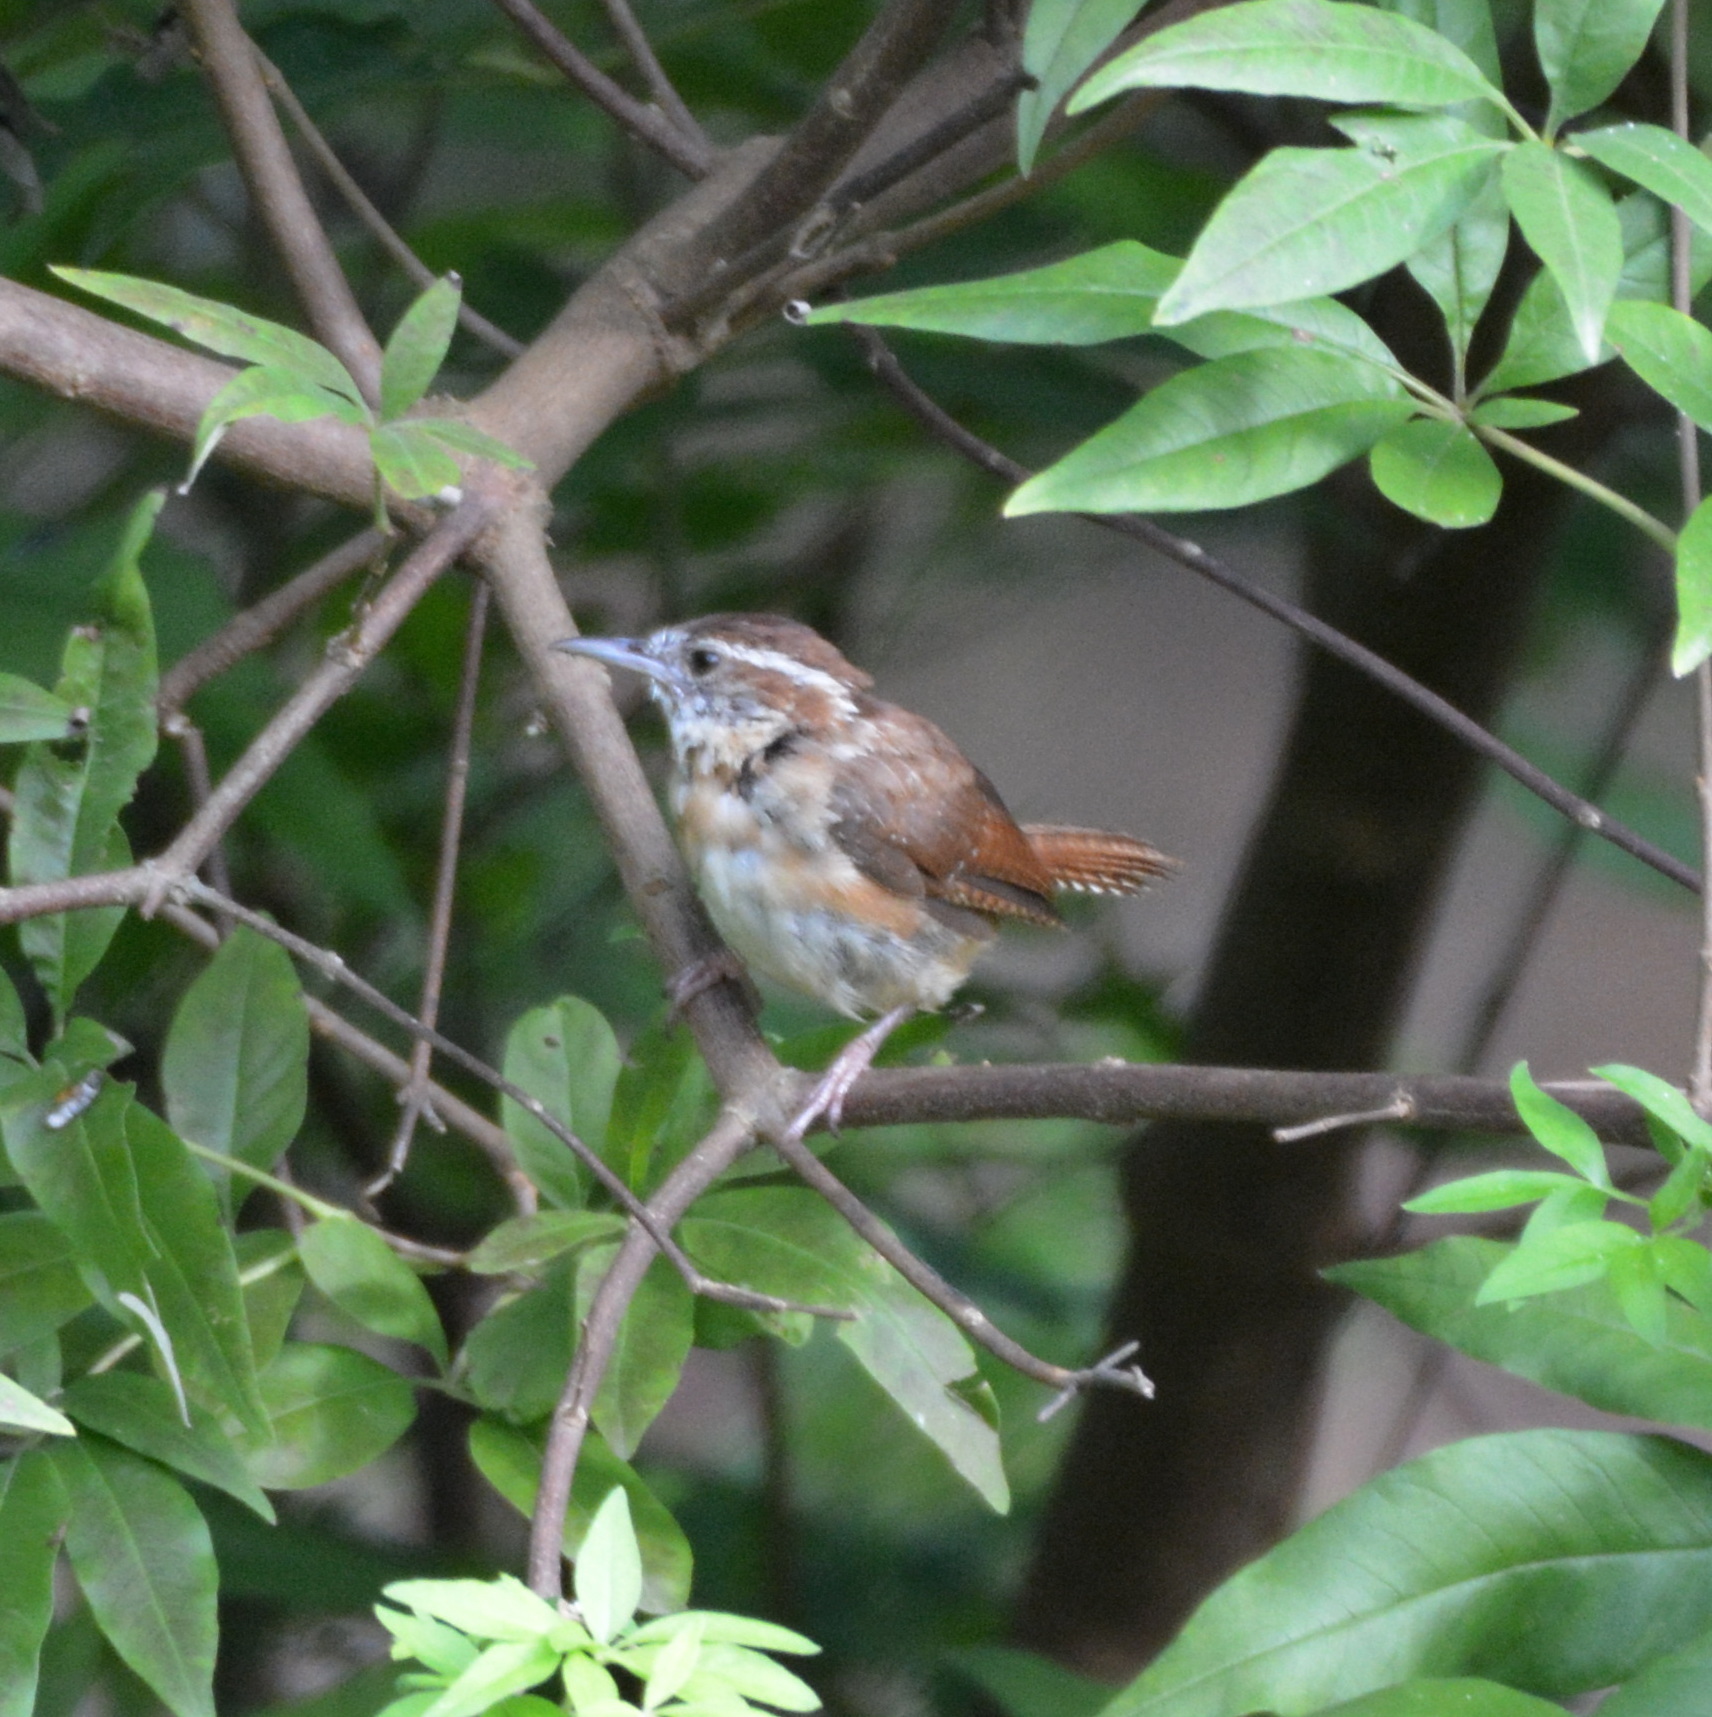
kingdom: Animalia
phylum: Chordata
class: Aves
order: Passeriformes
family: Troglodytidae
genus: Thryothorus
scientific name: Thryothorus ludovicianus
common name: Carolina wren
